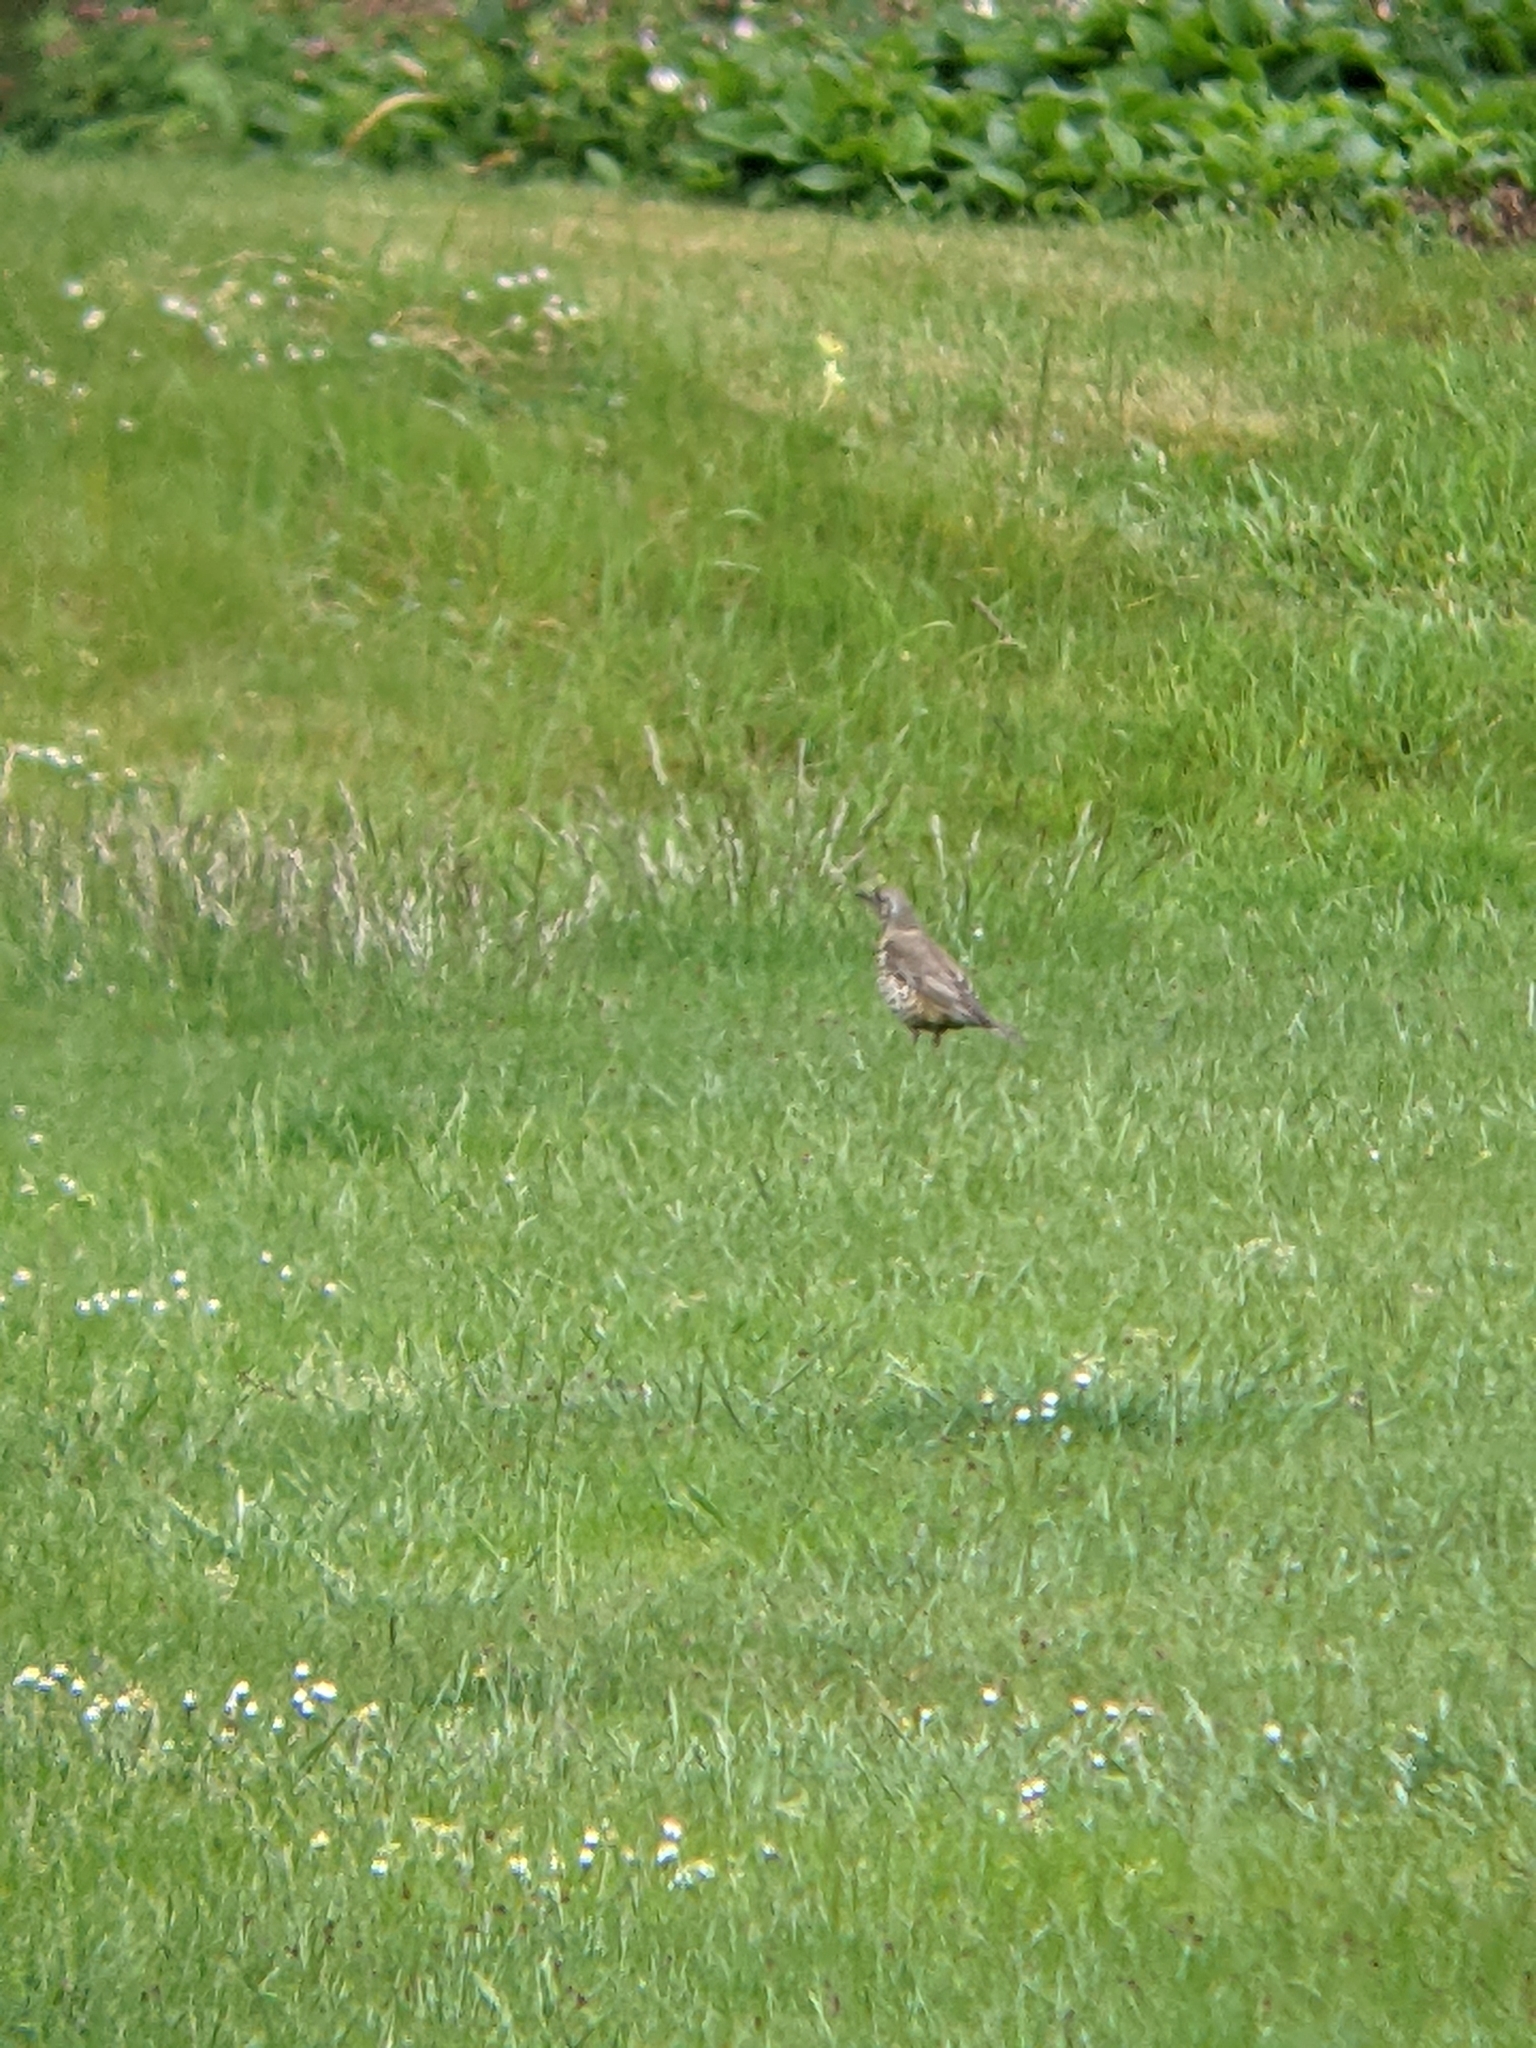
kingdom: Animalia
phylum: Chordata
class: Aves
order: Passeriformes
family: Turdidae
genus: Turdus
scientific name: Turdus viscivorus
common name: Mistle thrush
